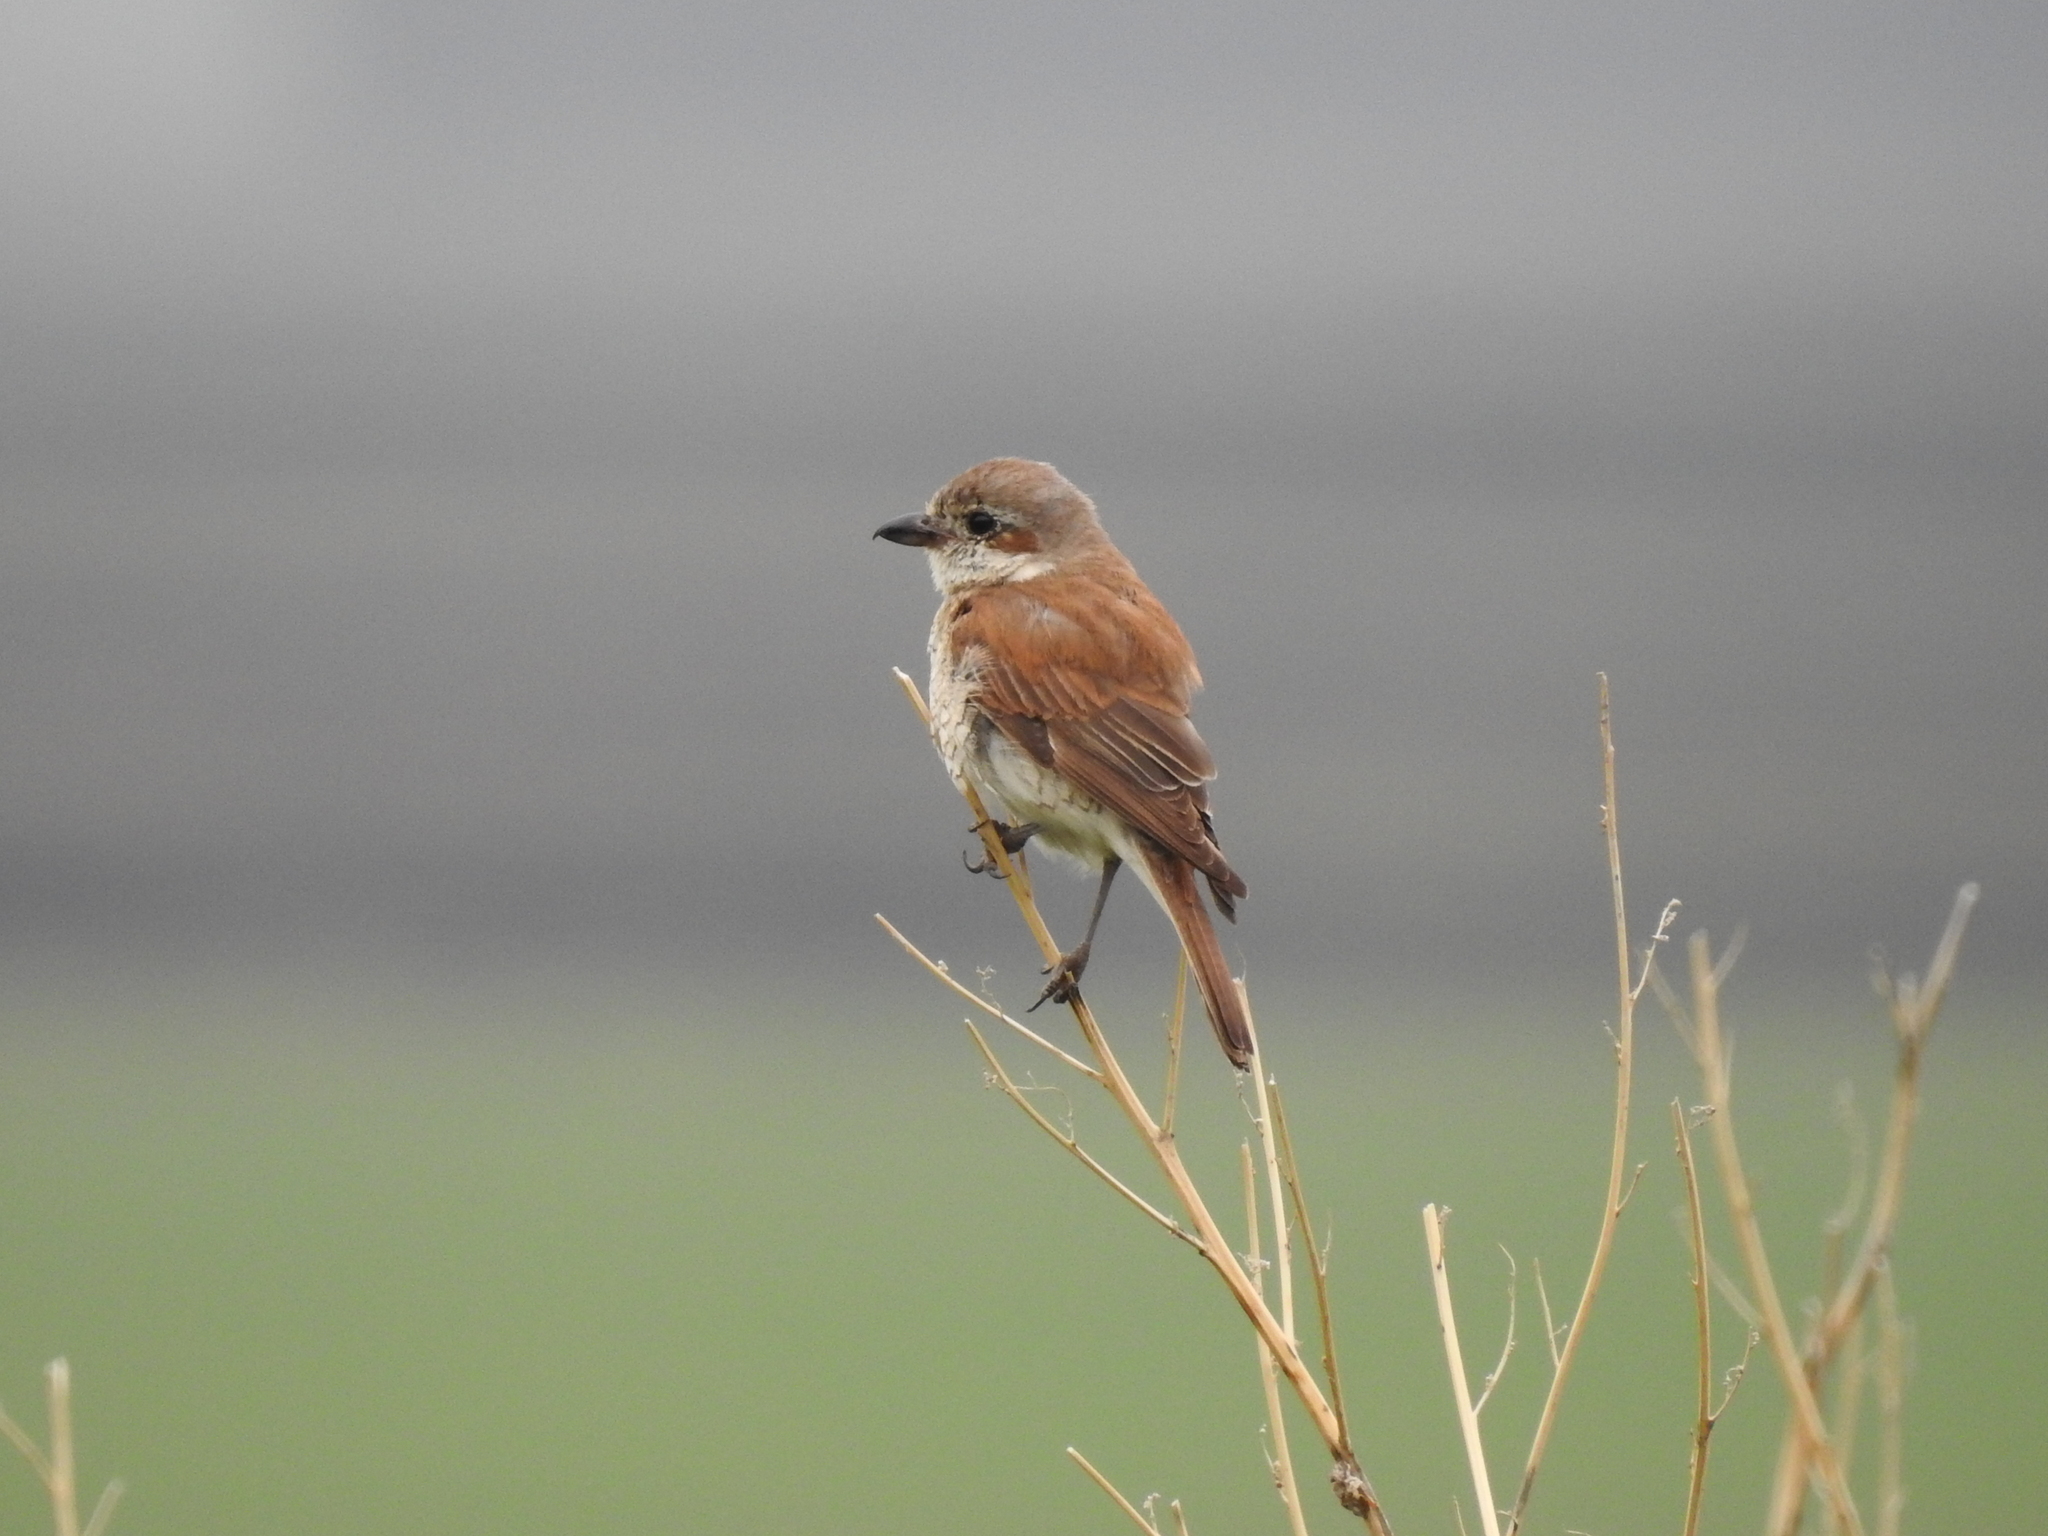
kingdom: Animalia
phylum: Chordata
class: Aves
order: Passeriformes
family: Laniidae
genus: Lanius
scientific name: Lanius collurio
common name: Red-backed shrike
